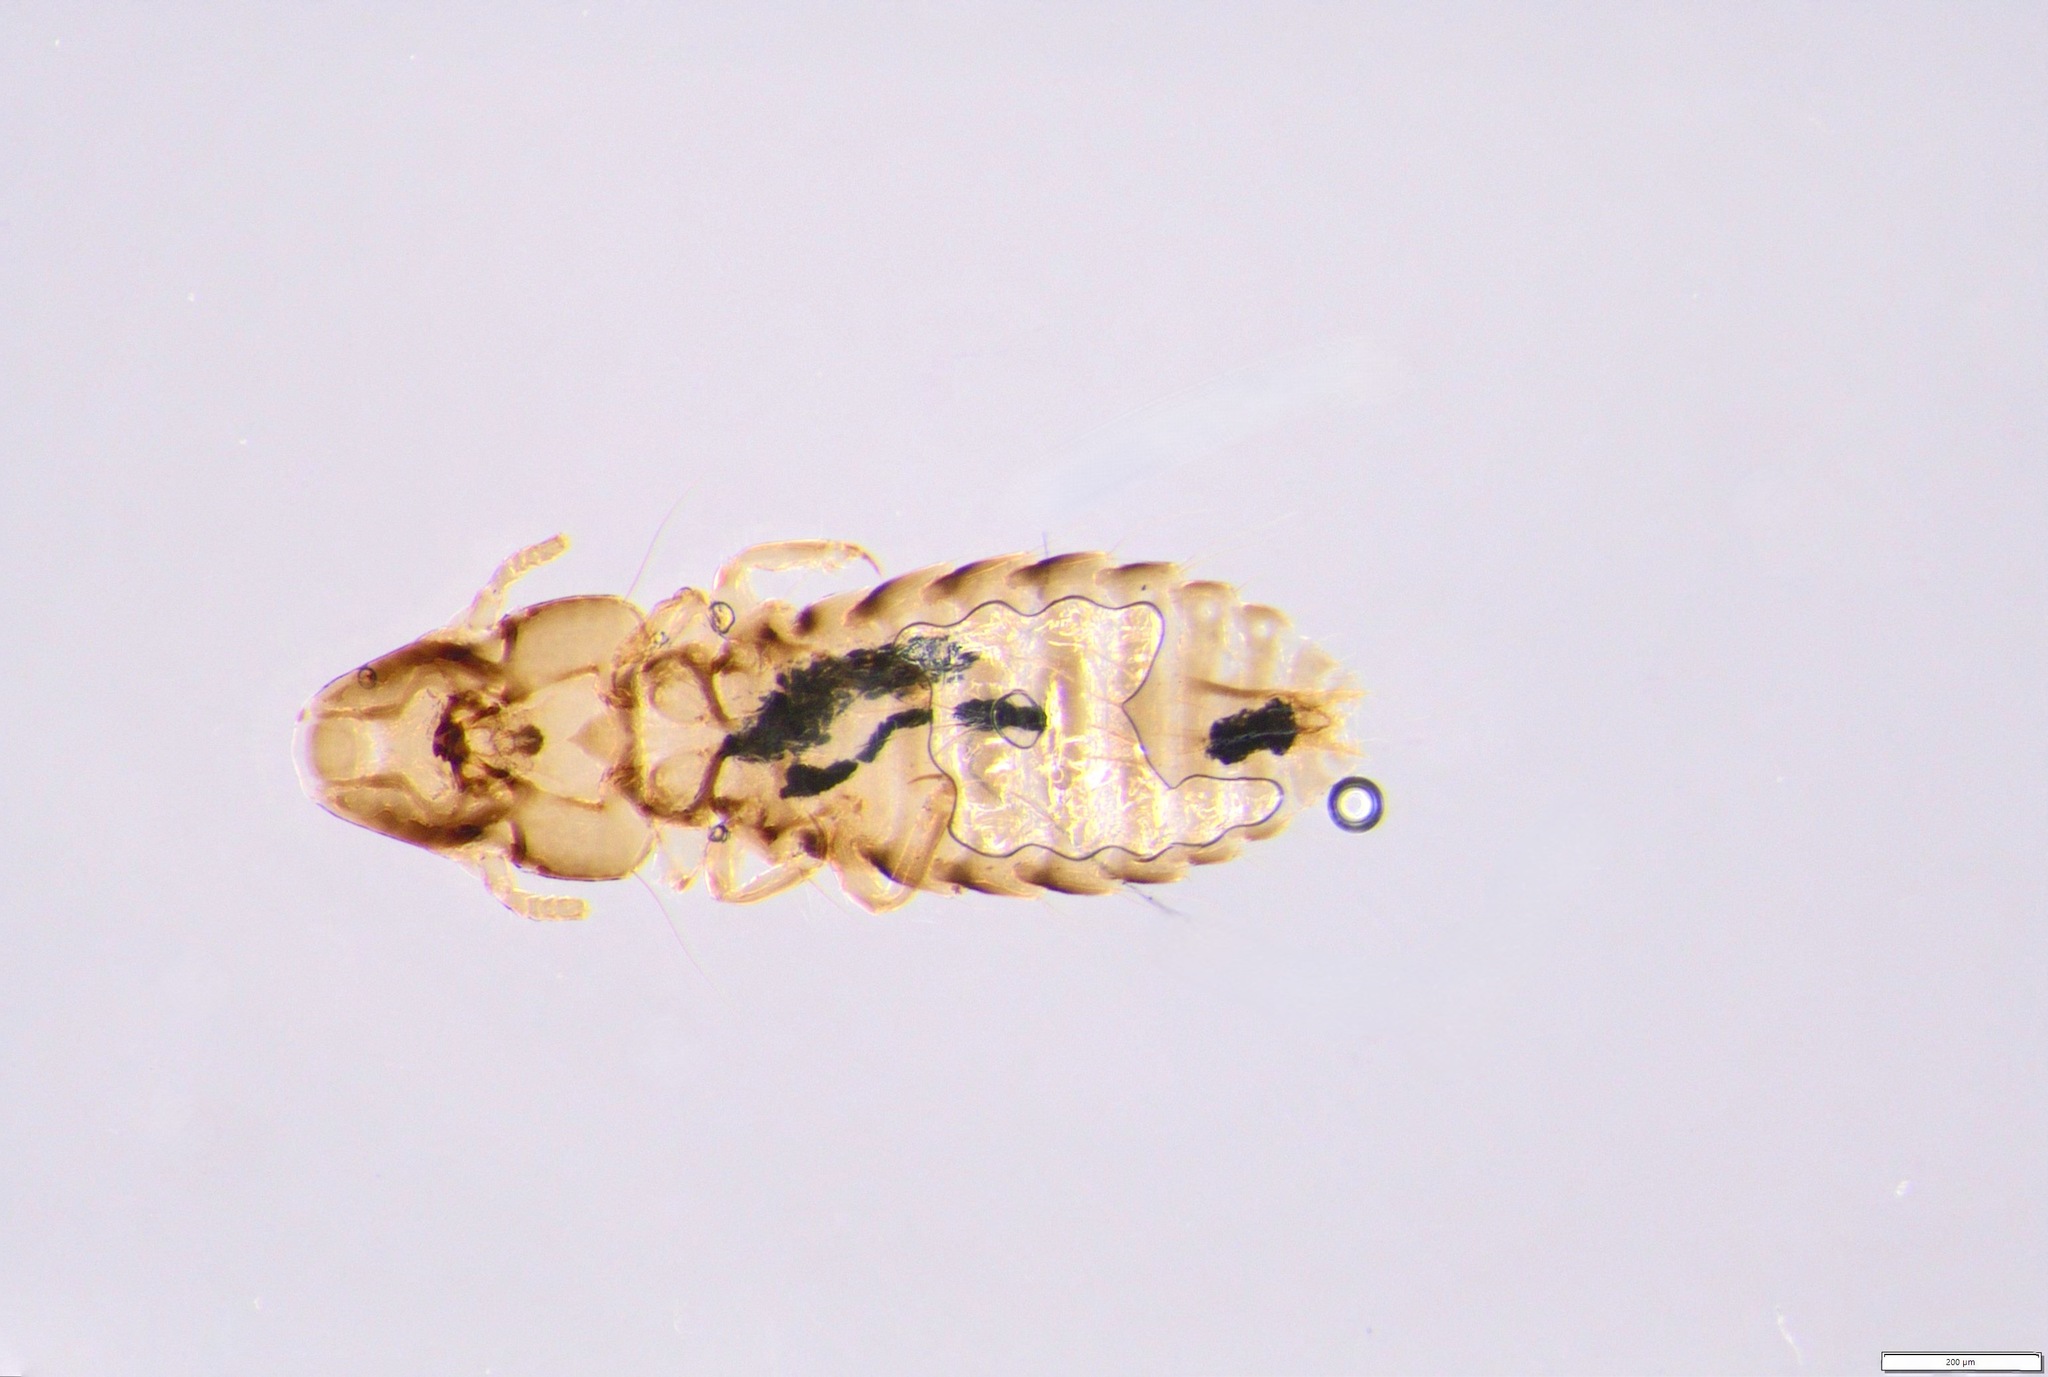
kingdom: Animalia
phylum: Arthropoda
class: Insecta
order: Psocodea
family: Philopteridae
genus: Rallicola
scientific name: Rallicola harrisoni
